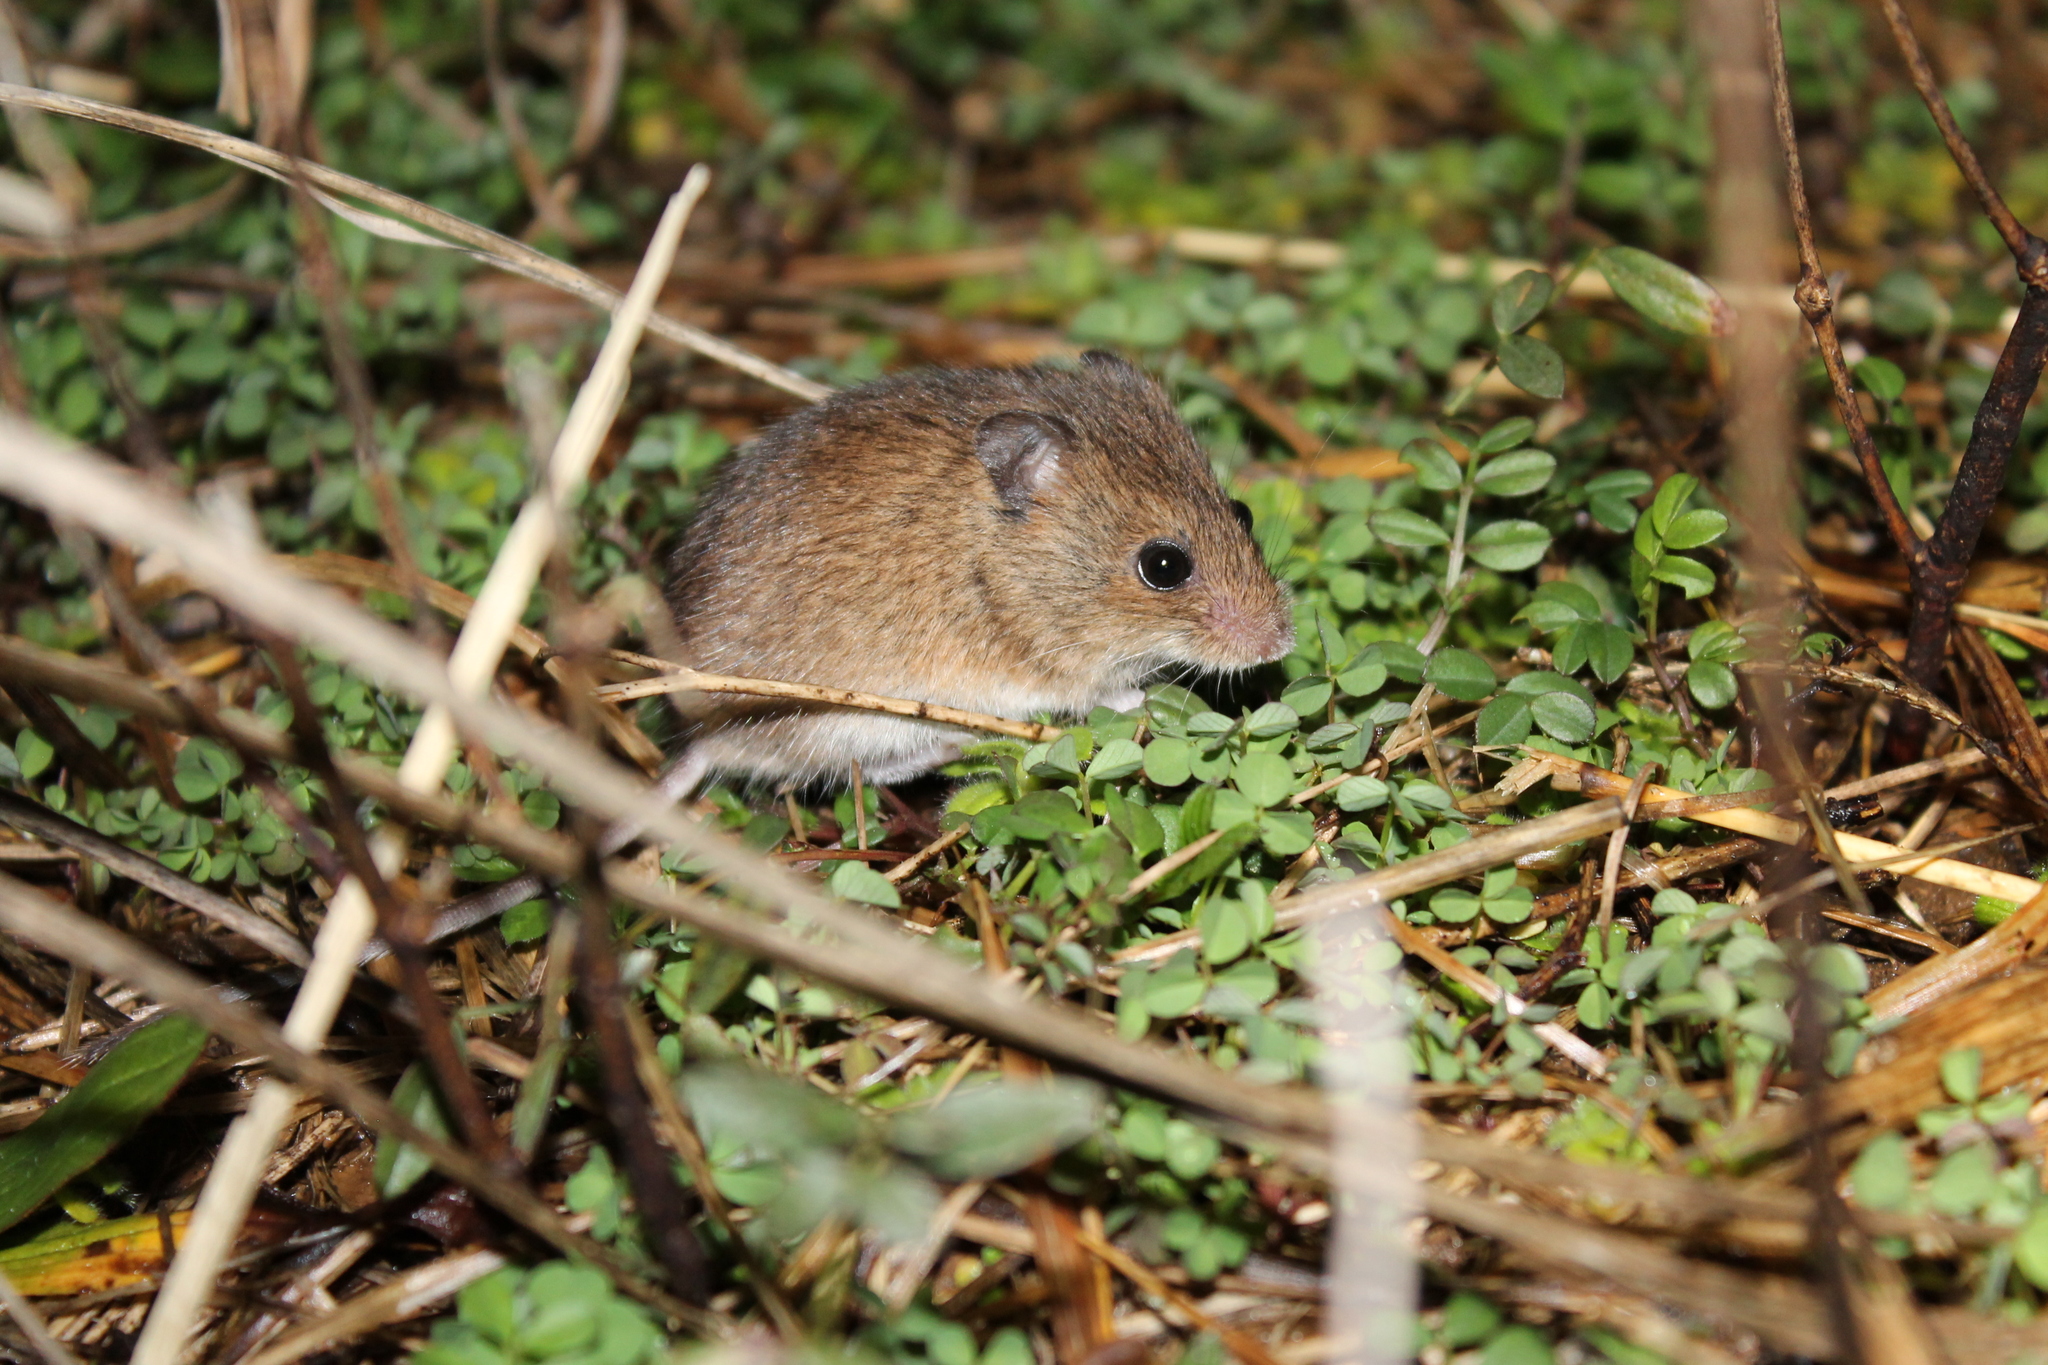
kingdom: Animalia
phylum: Chordata
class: Mammalia
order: Rodentia
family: Cricetidae
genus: Peromyscus
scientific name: Peromyscus leucopus
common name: White-footed deermouse
